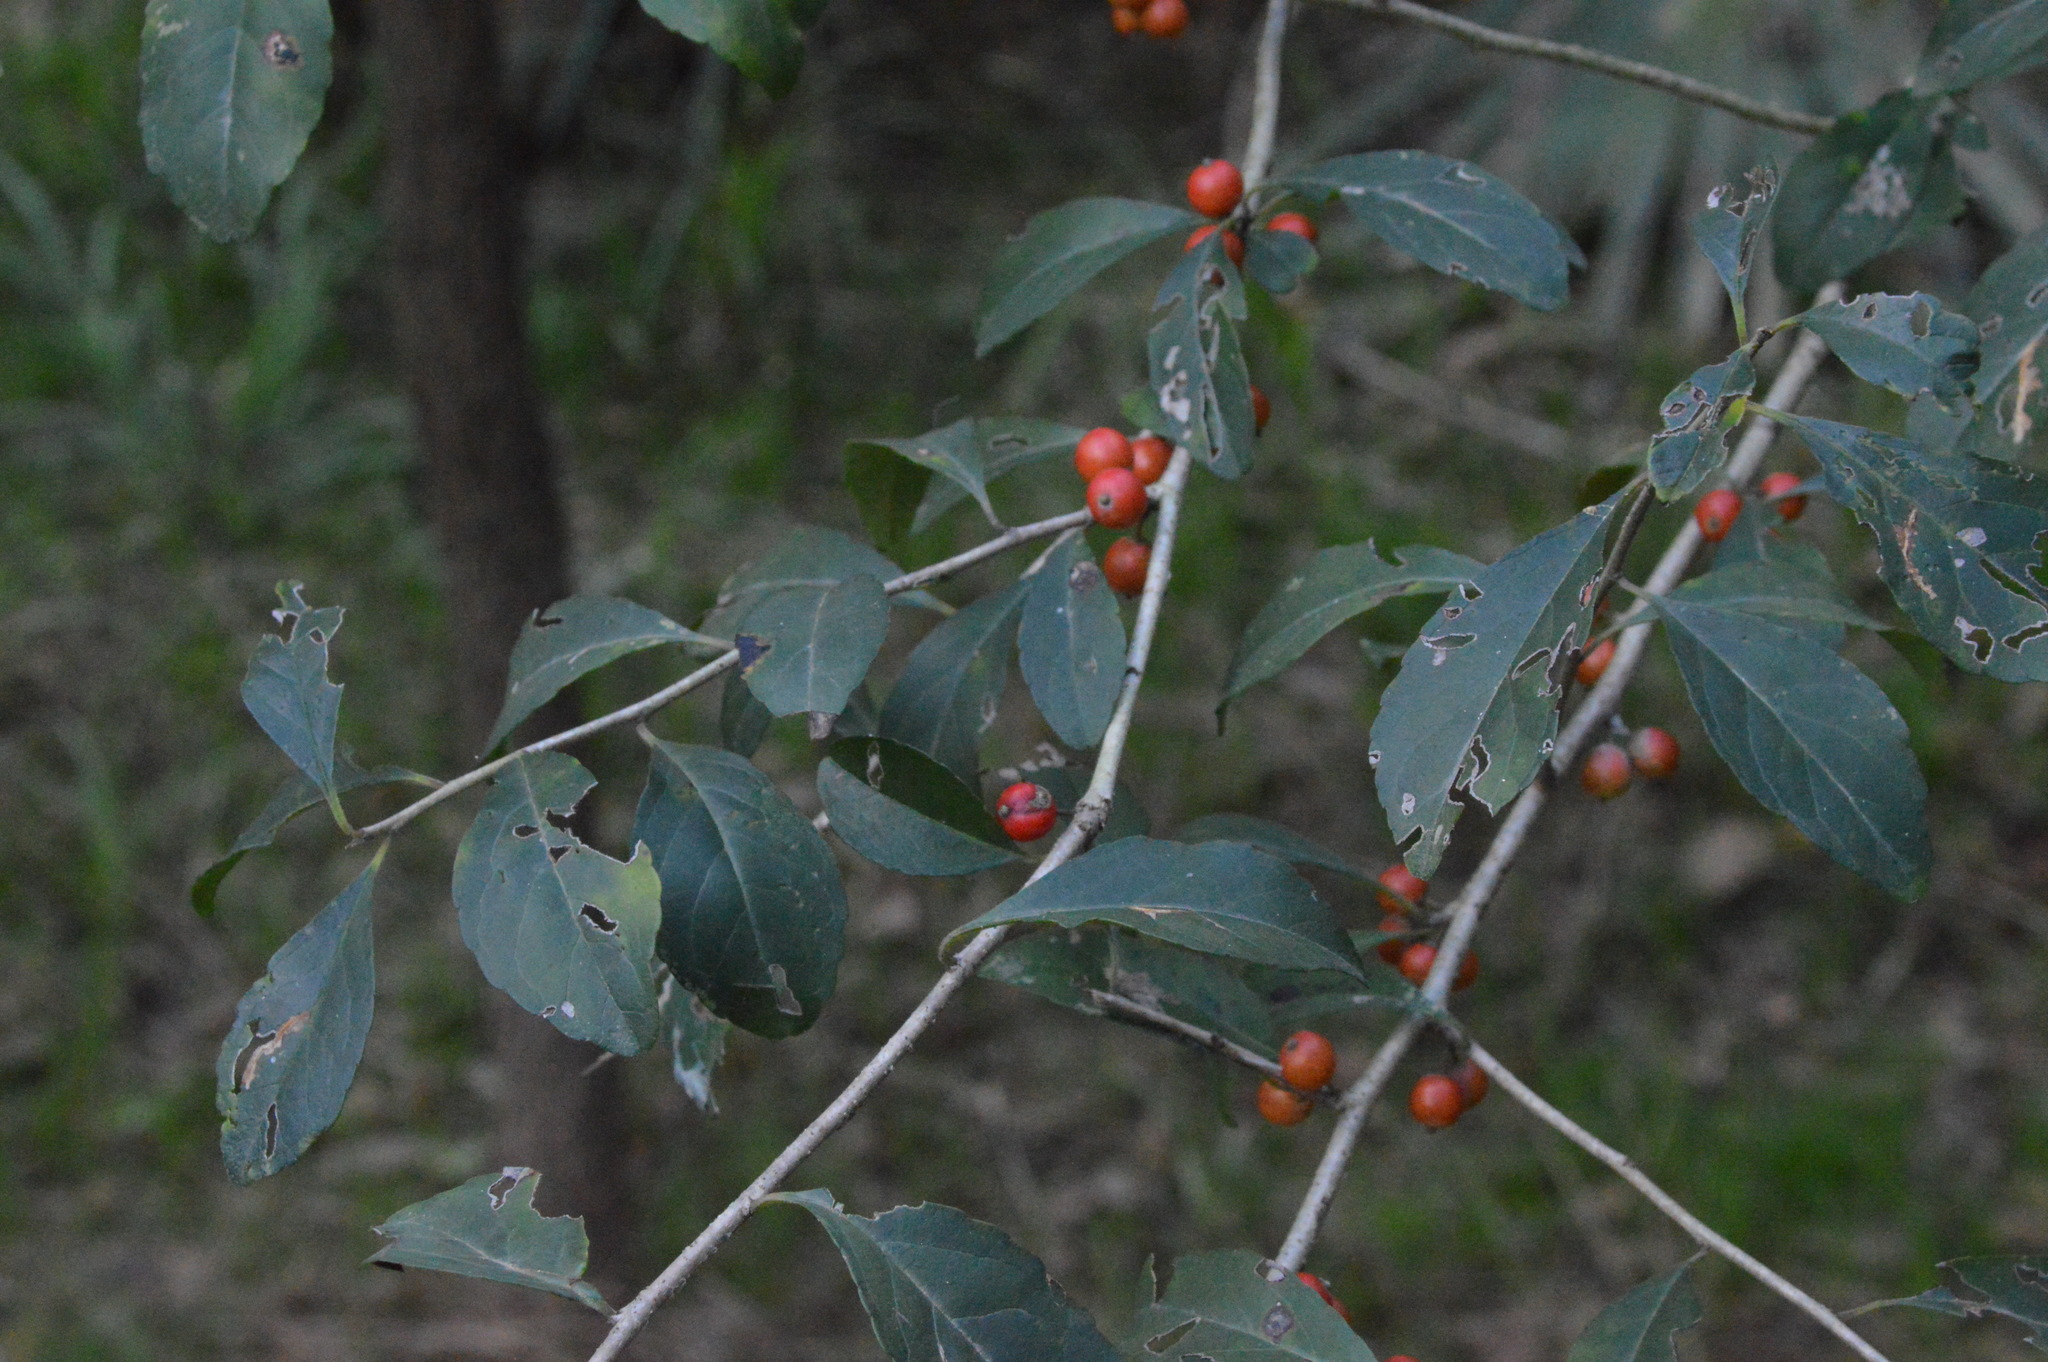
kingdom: Plantae
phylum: Tracheophyta
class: Magnoliopsida
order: Aquifoliales
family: Aquifoliaceae
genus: Ilex
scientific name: Ilex decidua
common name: Possum-haw
